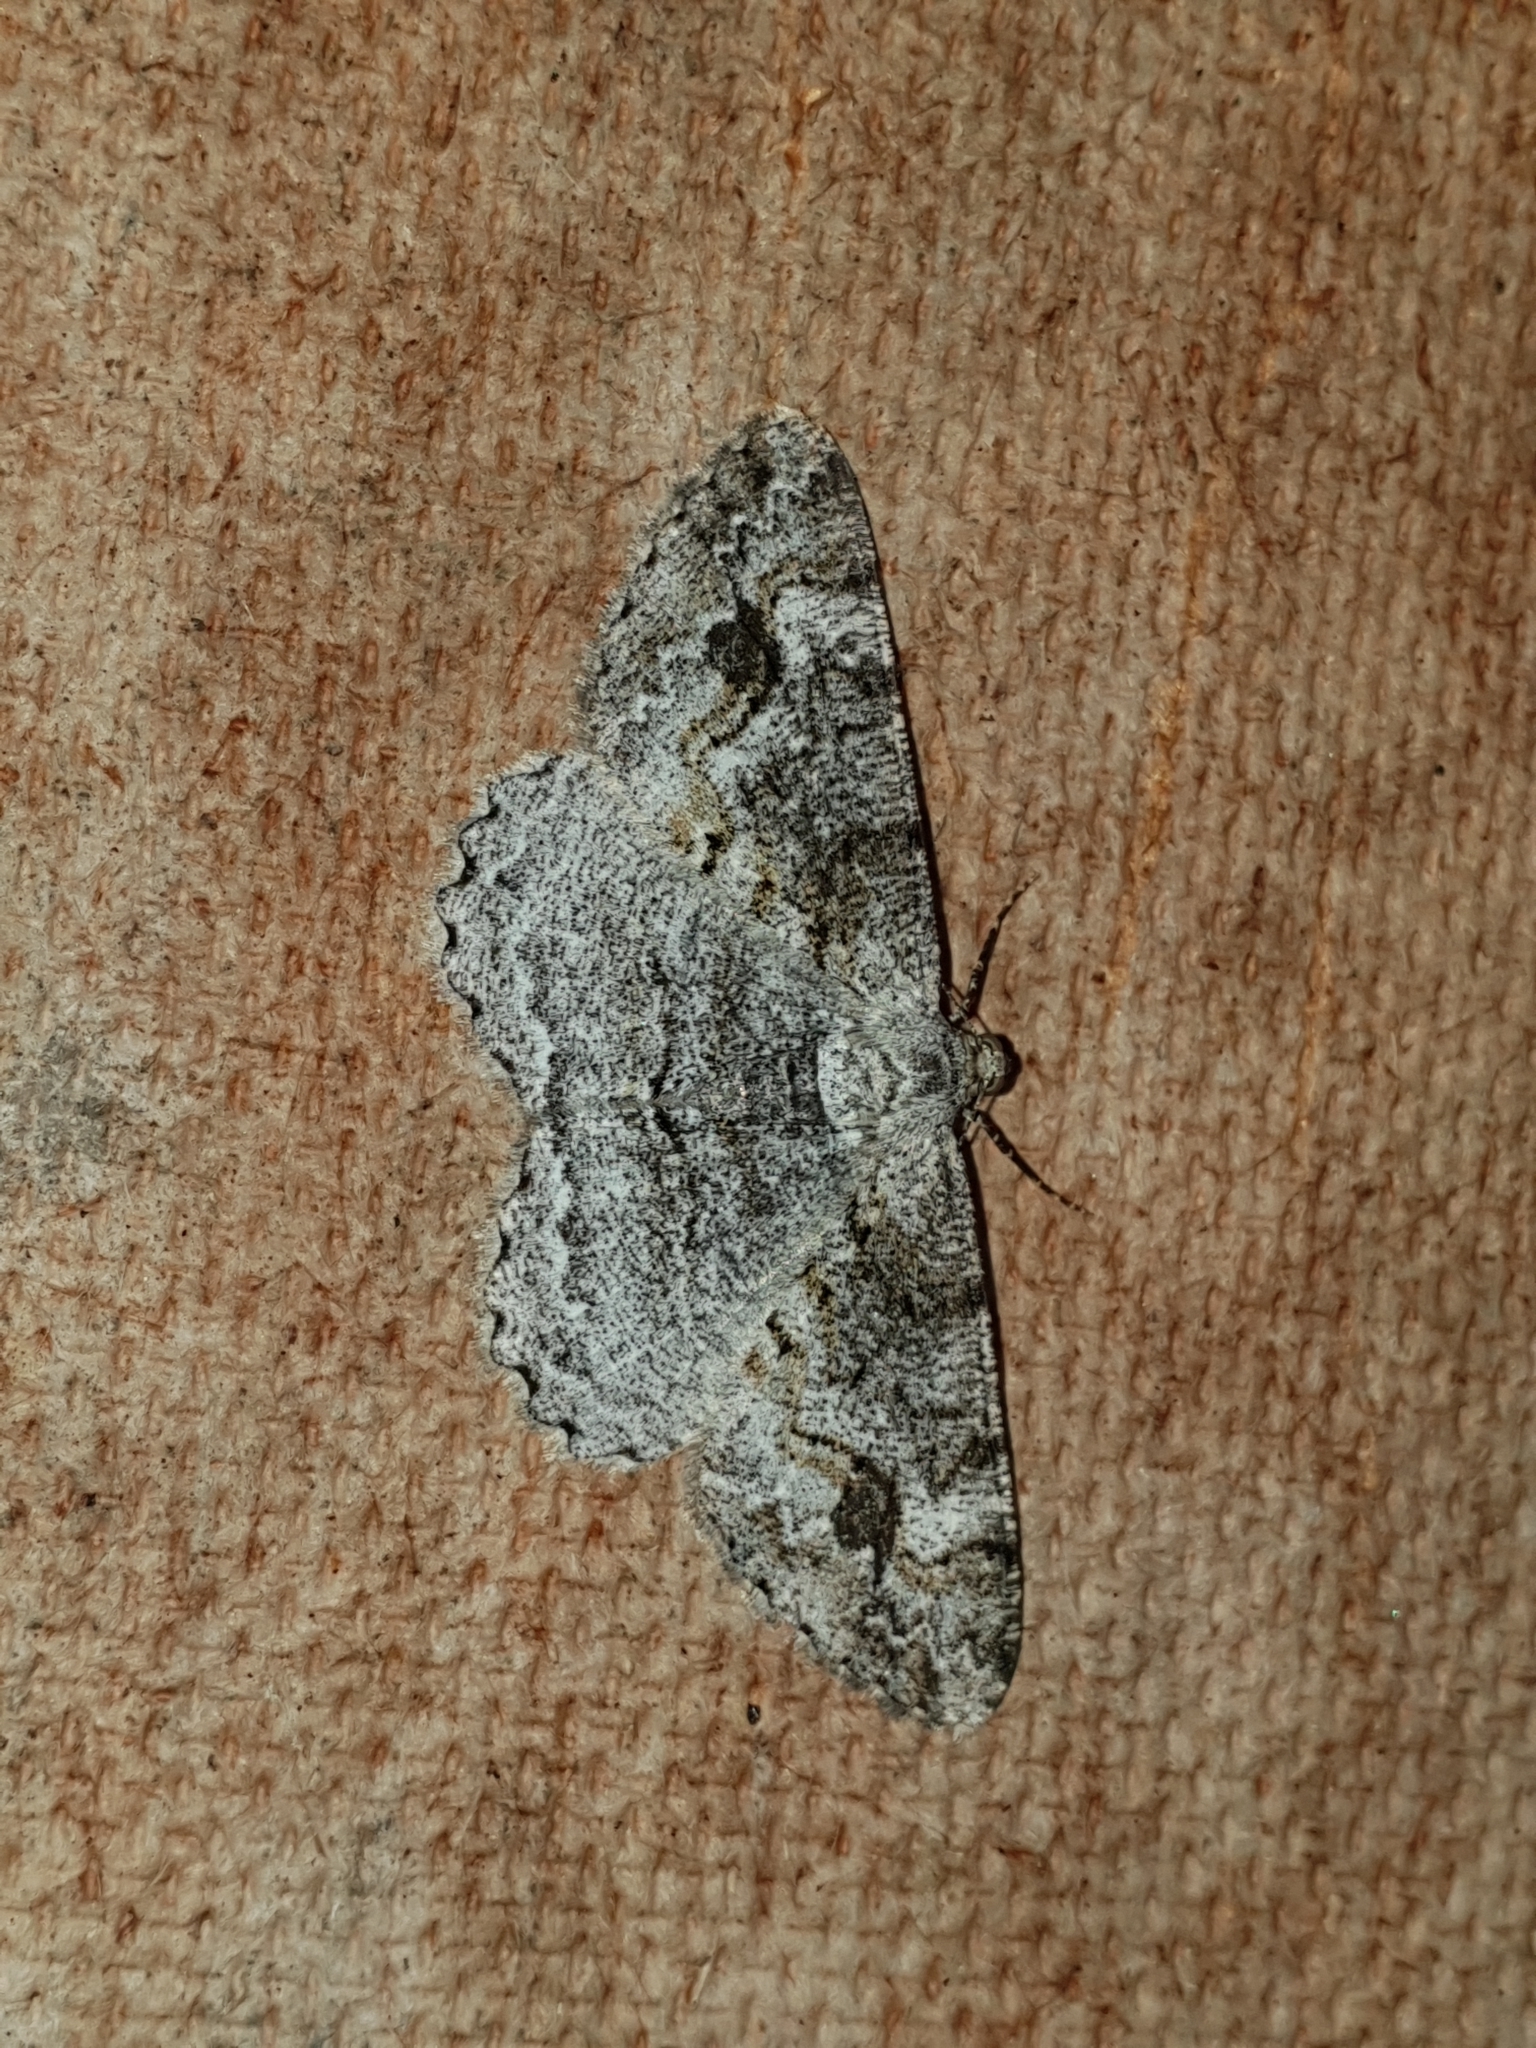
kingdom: Animalia
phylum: Arthropoda
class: Insecta
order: Lepidoptera
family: Geometridae
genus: Alcis
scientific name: Alcis repandata
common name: Mottled beauty
